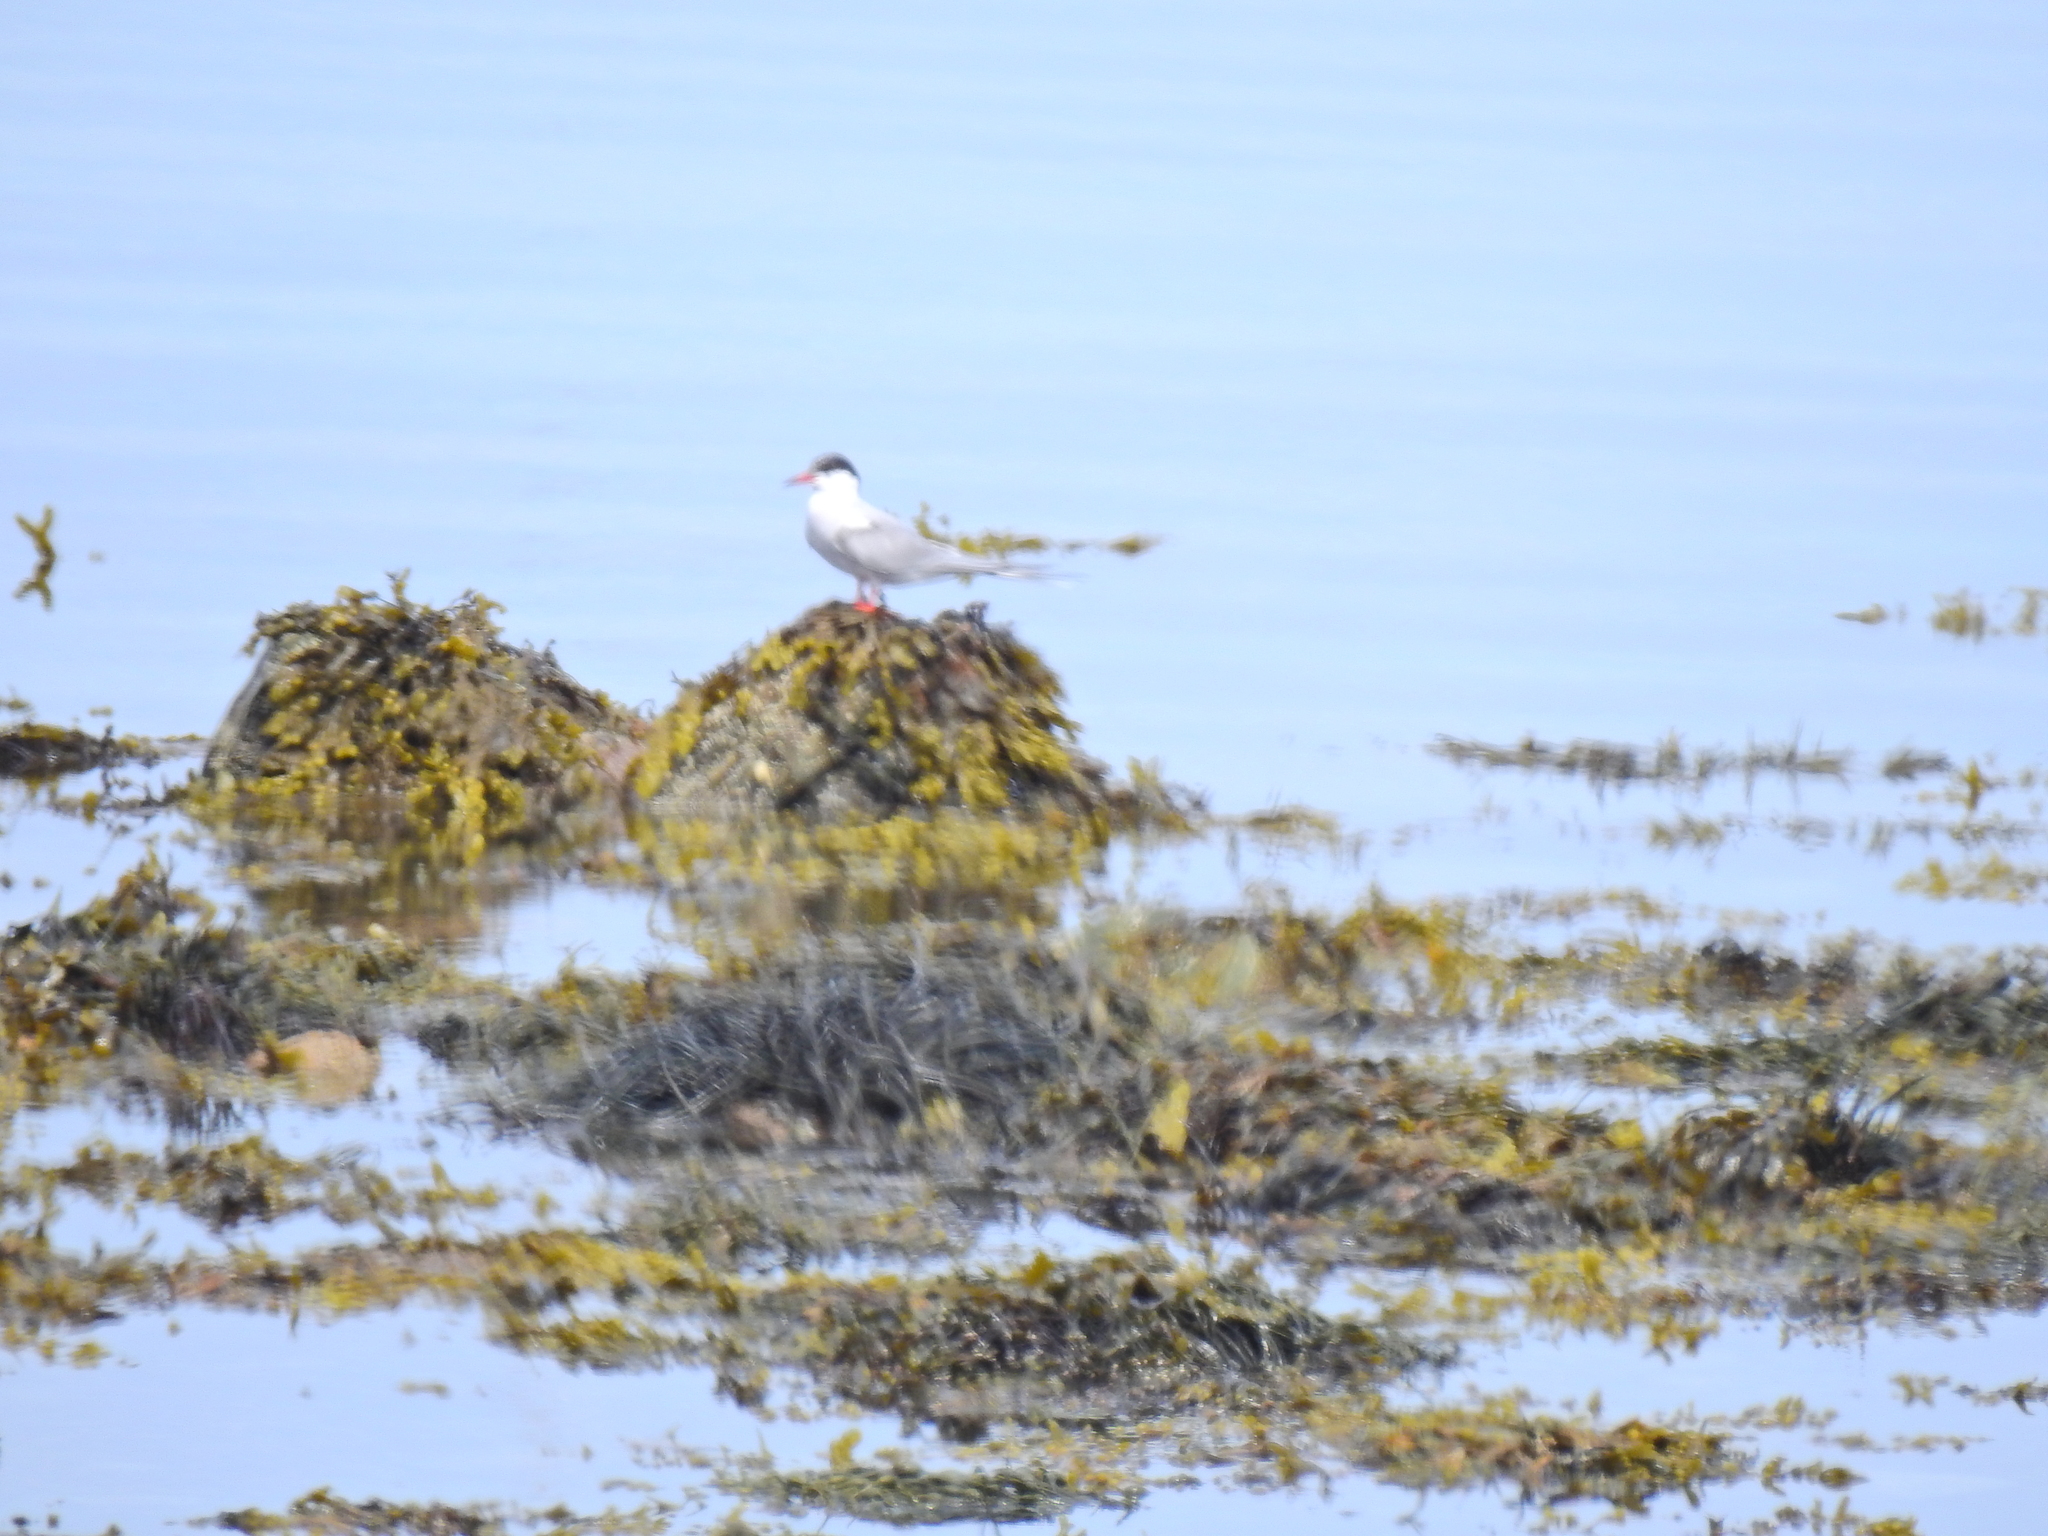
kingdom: Animalia
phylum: Chordata
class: Aves
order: Charadriiformes
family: Laridae
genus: Sterna
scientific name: Sterna hirundo
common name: Common tern
